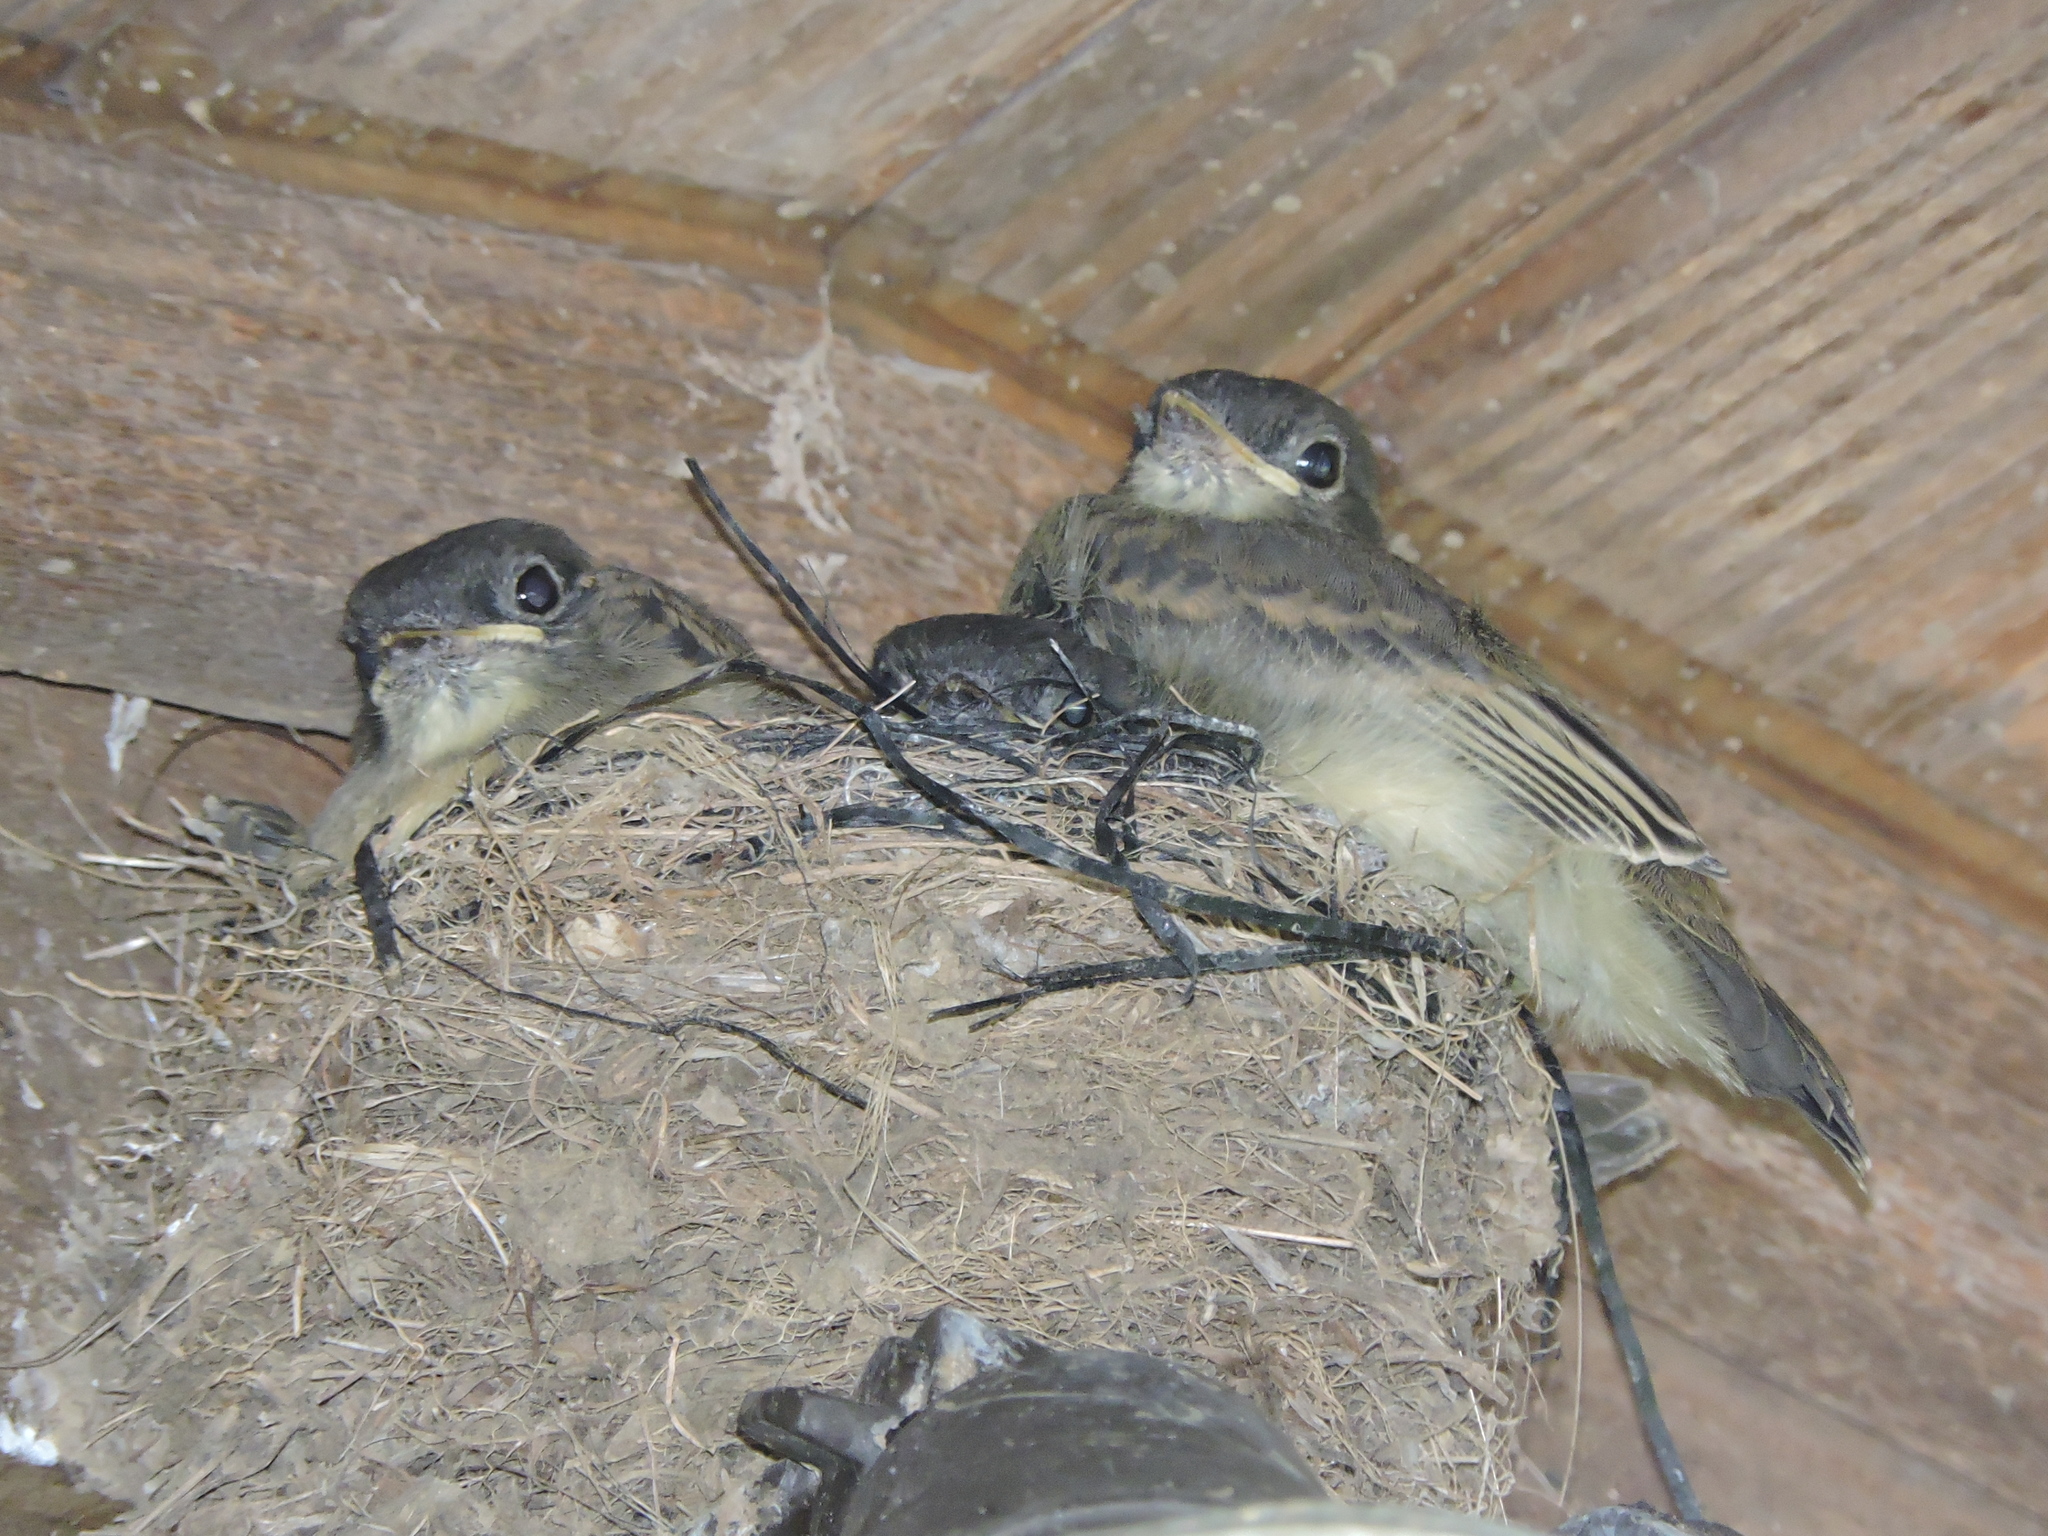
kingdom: Animalia
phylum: Chordata
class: Aves
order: Passeriformes
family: Tyrannidae
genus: Sayornis
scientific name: Sayornis phoebe
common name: Eastern phoebe
